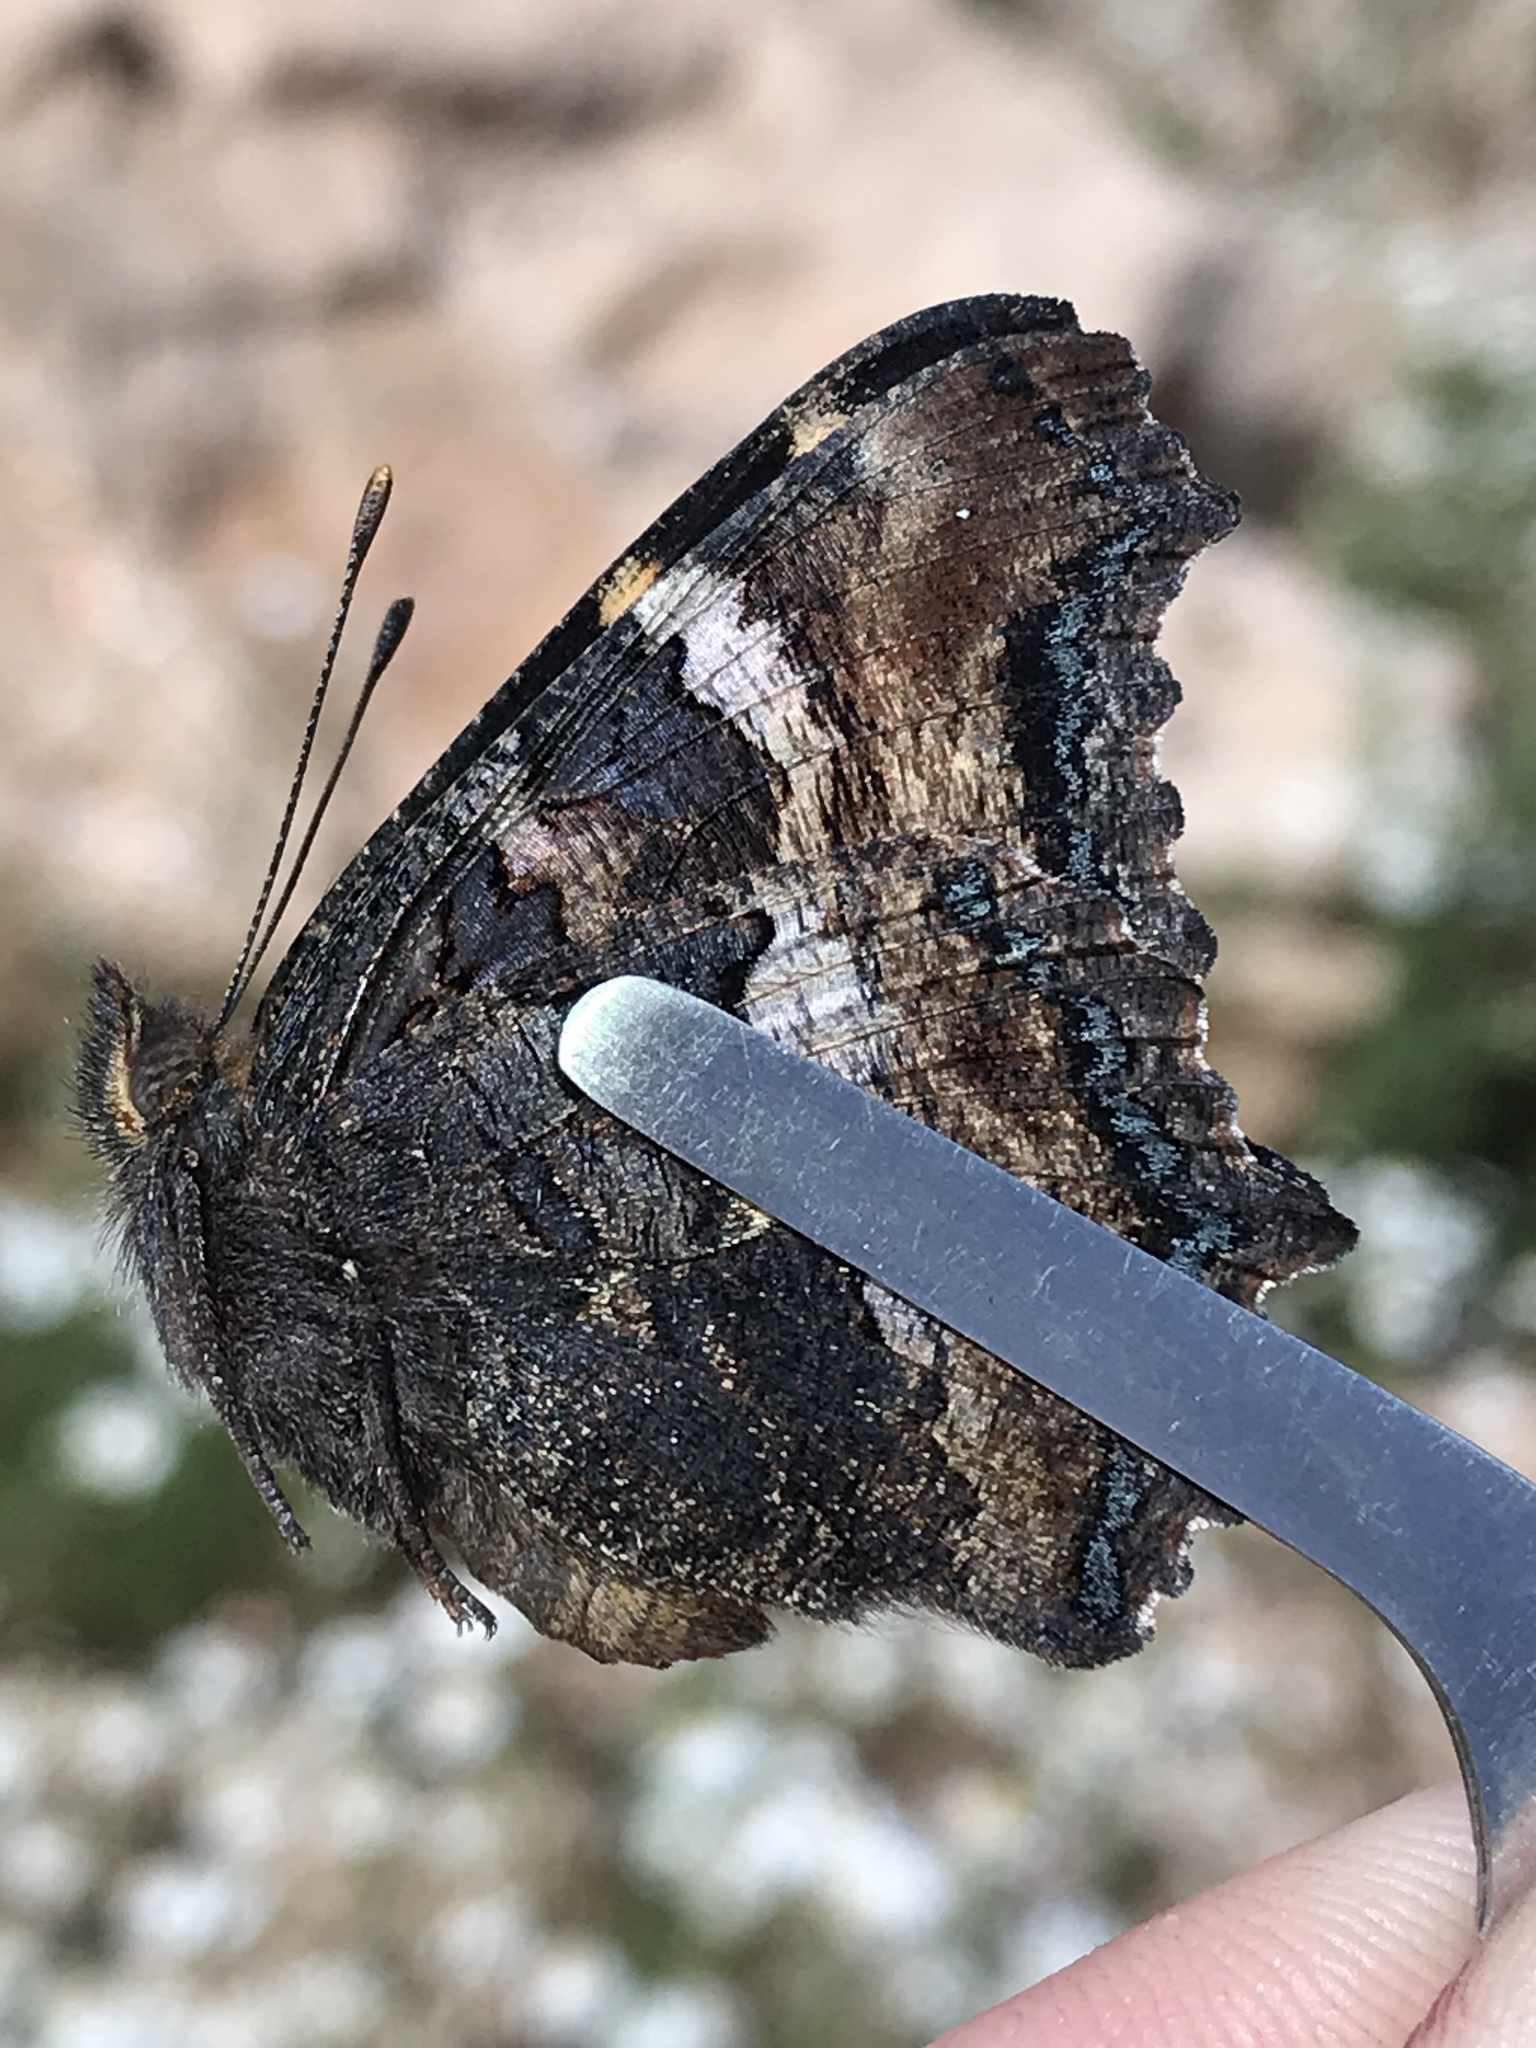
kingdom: Animalia
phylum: Arthropoda
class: Insecta
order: Lepidoptera
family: Nymphalidae
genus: Nymphalis
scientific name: Nymphalis californica
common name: California tortoiseshell
